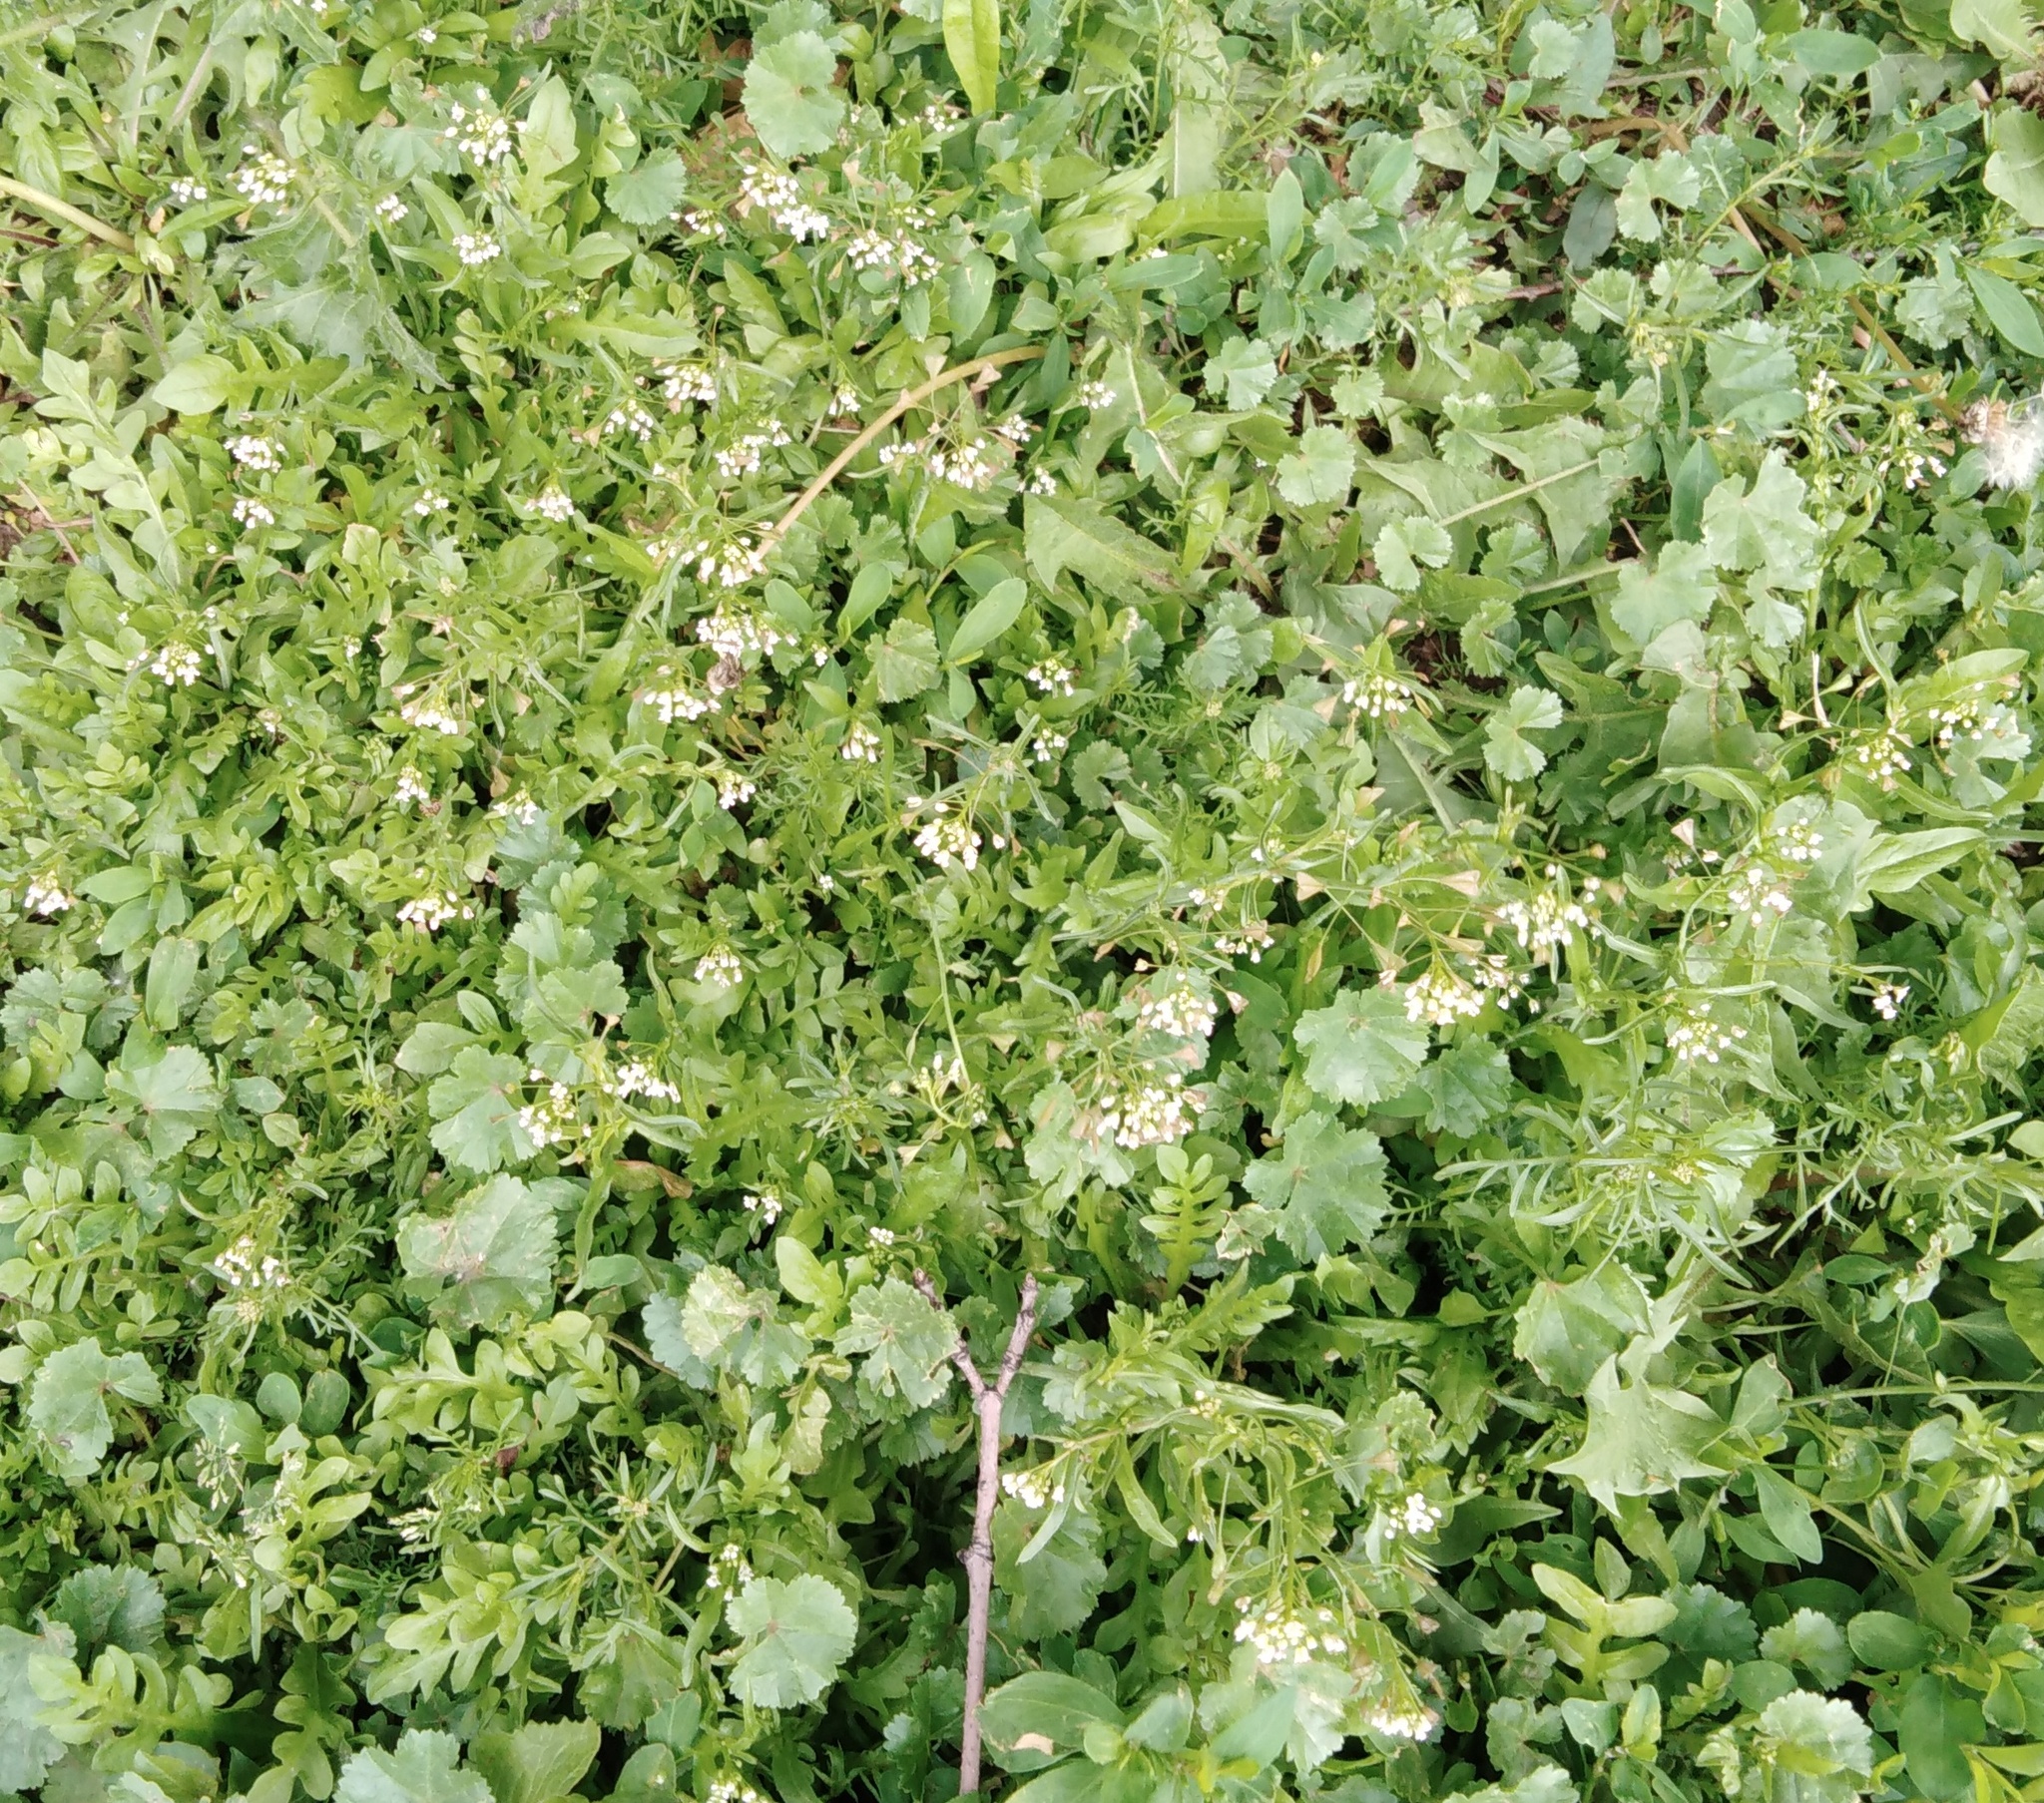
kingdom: Plantae
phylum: Tracheophyta
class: Magnoliopsida
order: Brassicales
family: Brassicaceae
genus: Capsella
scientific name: Capsella bursa-pastoris
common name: Shepherd's purse
